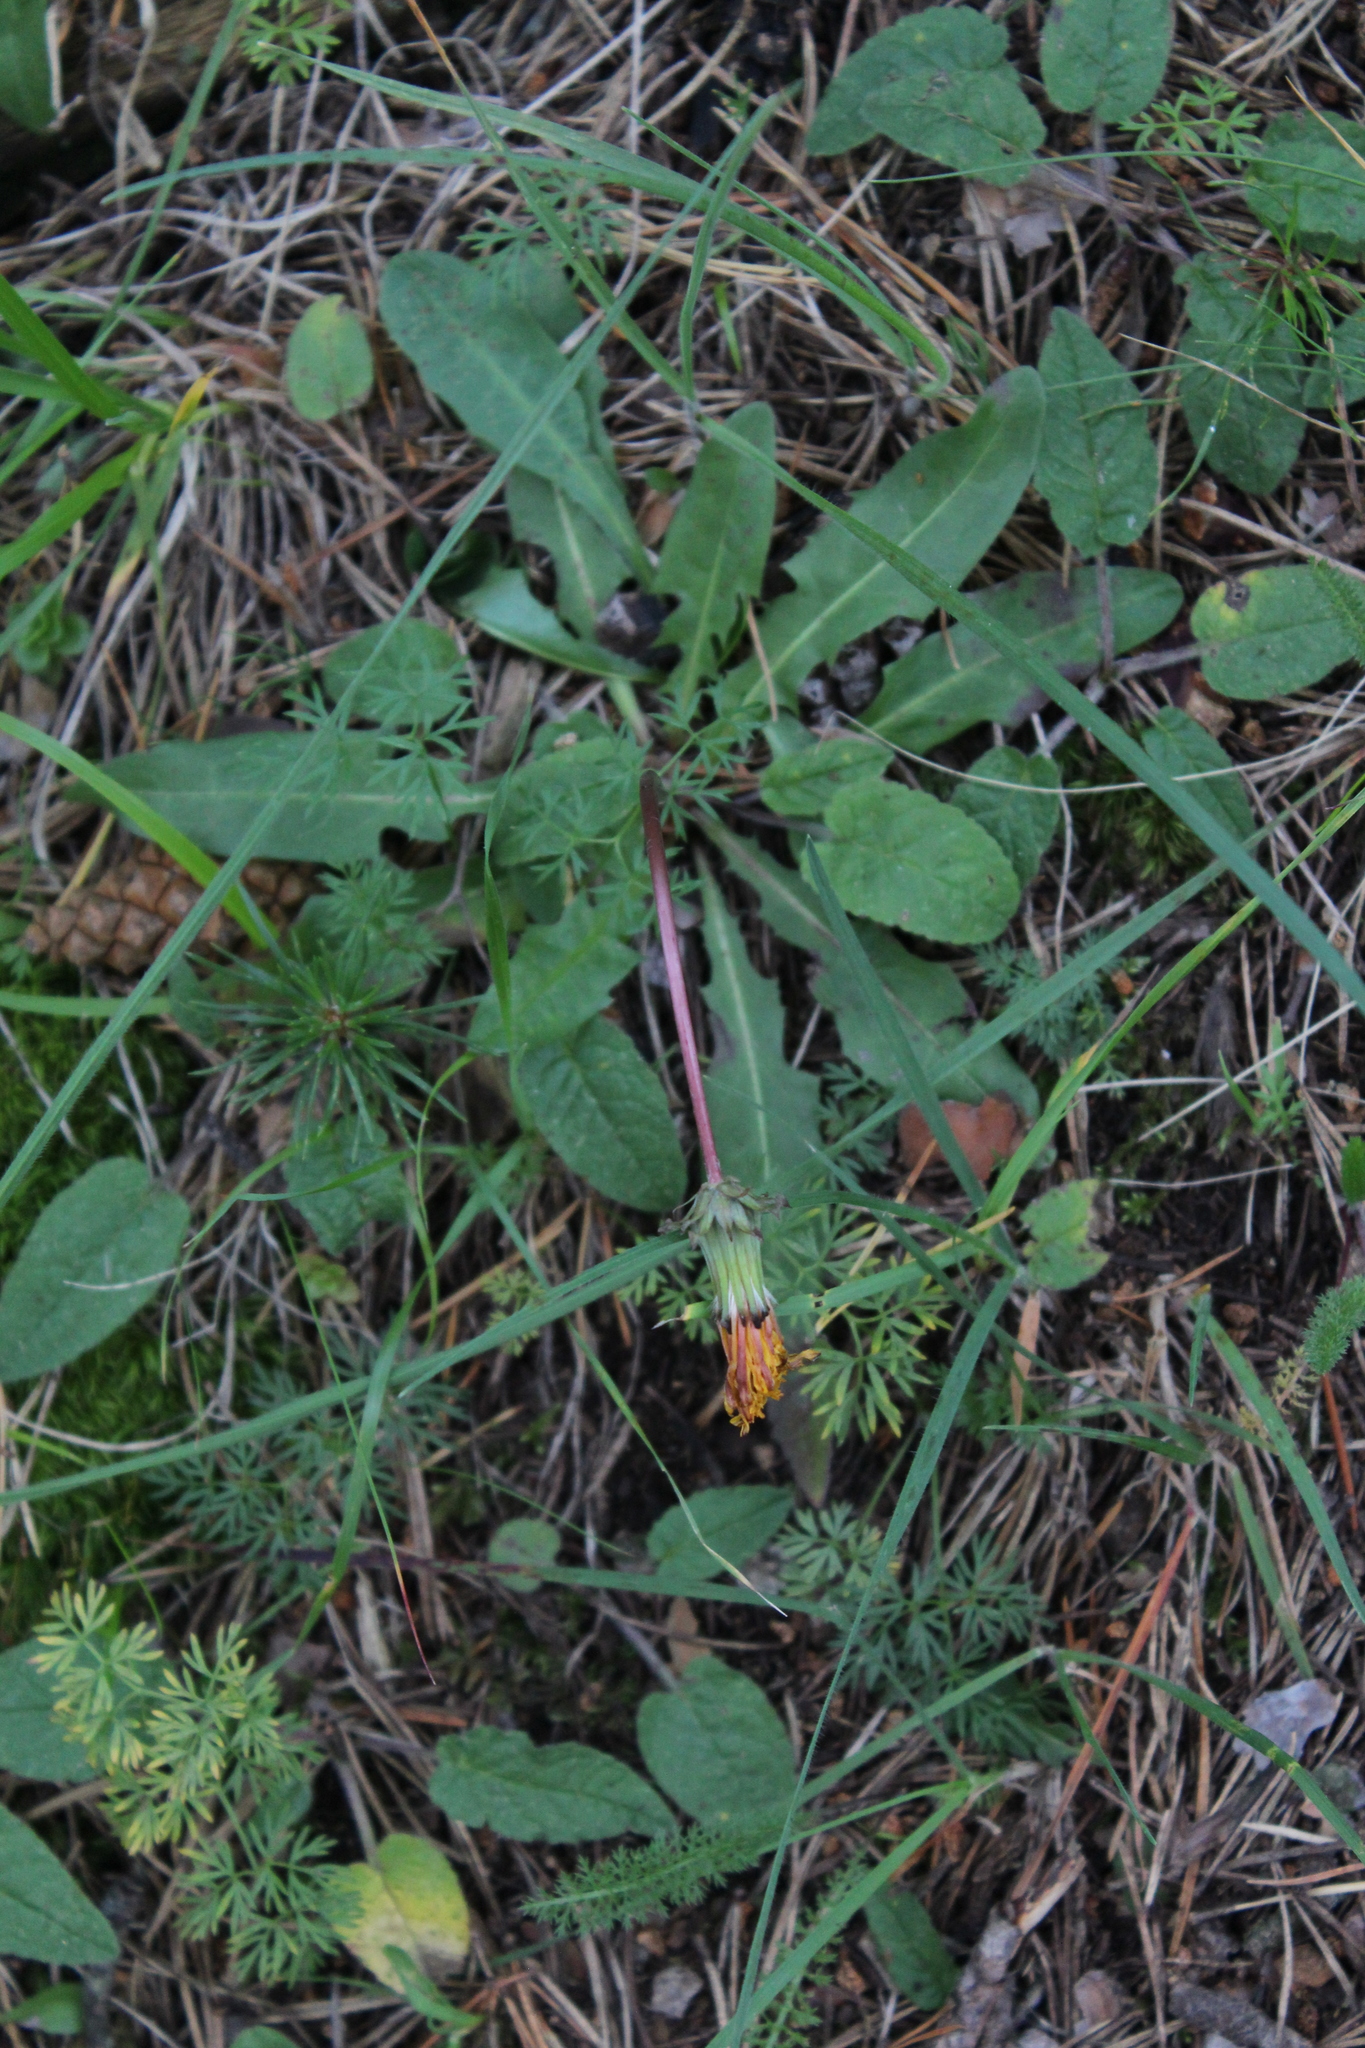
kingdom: Plantae
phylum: Tracheophyta
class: Magnoliopsida
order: Asterales
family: Asteraceae
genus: Taraxacum
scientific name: Taraxacum
